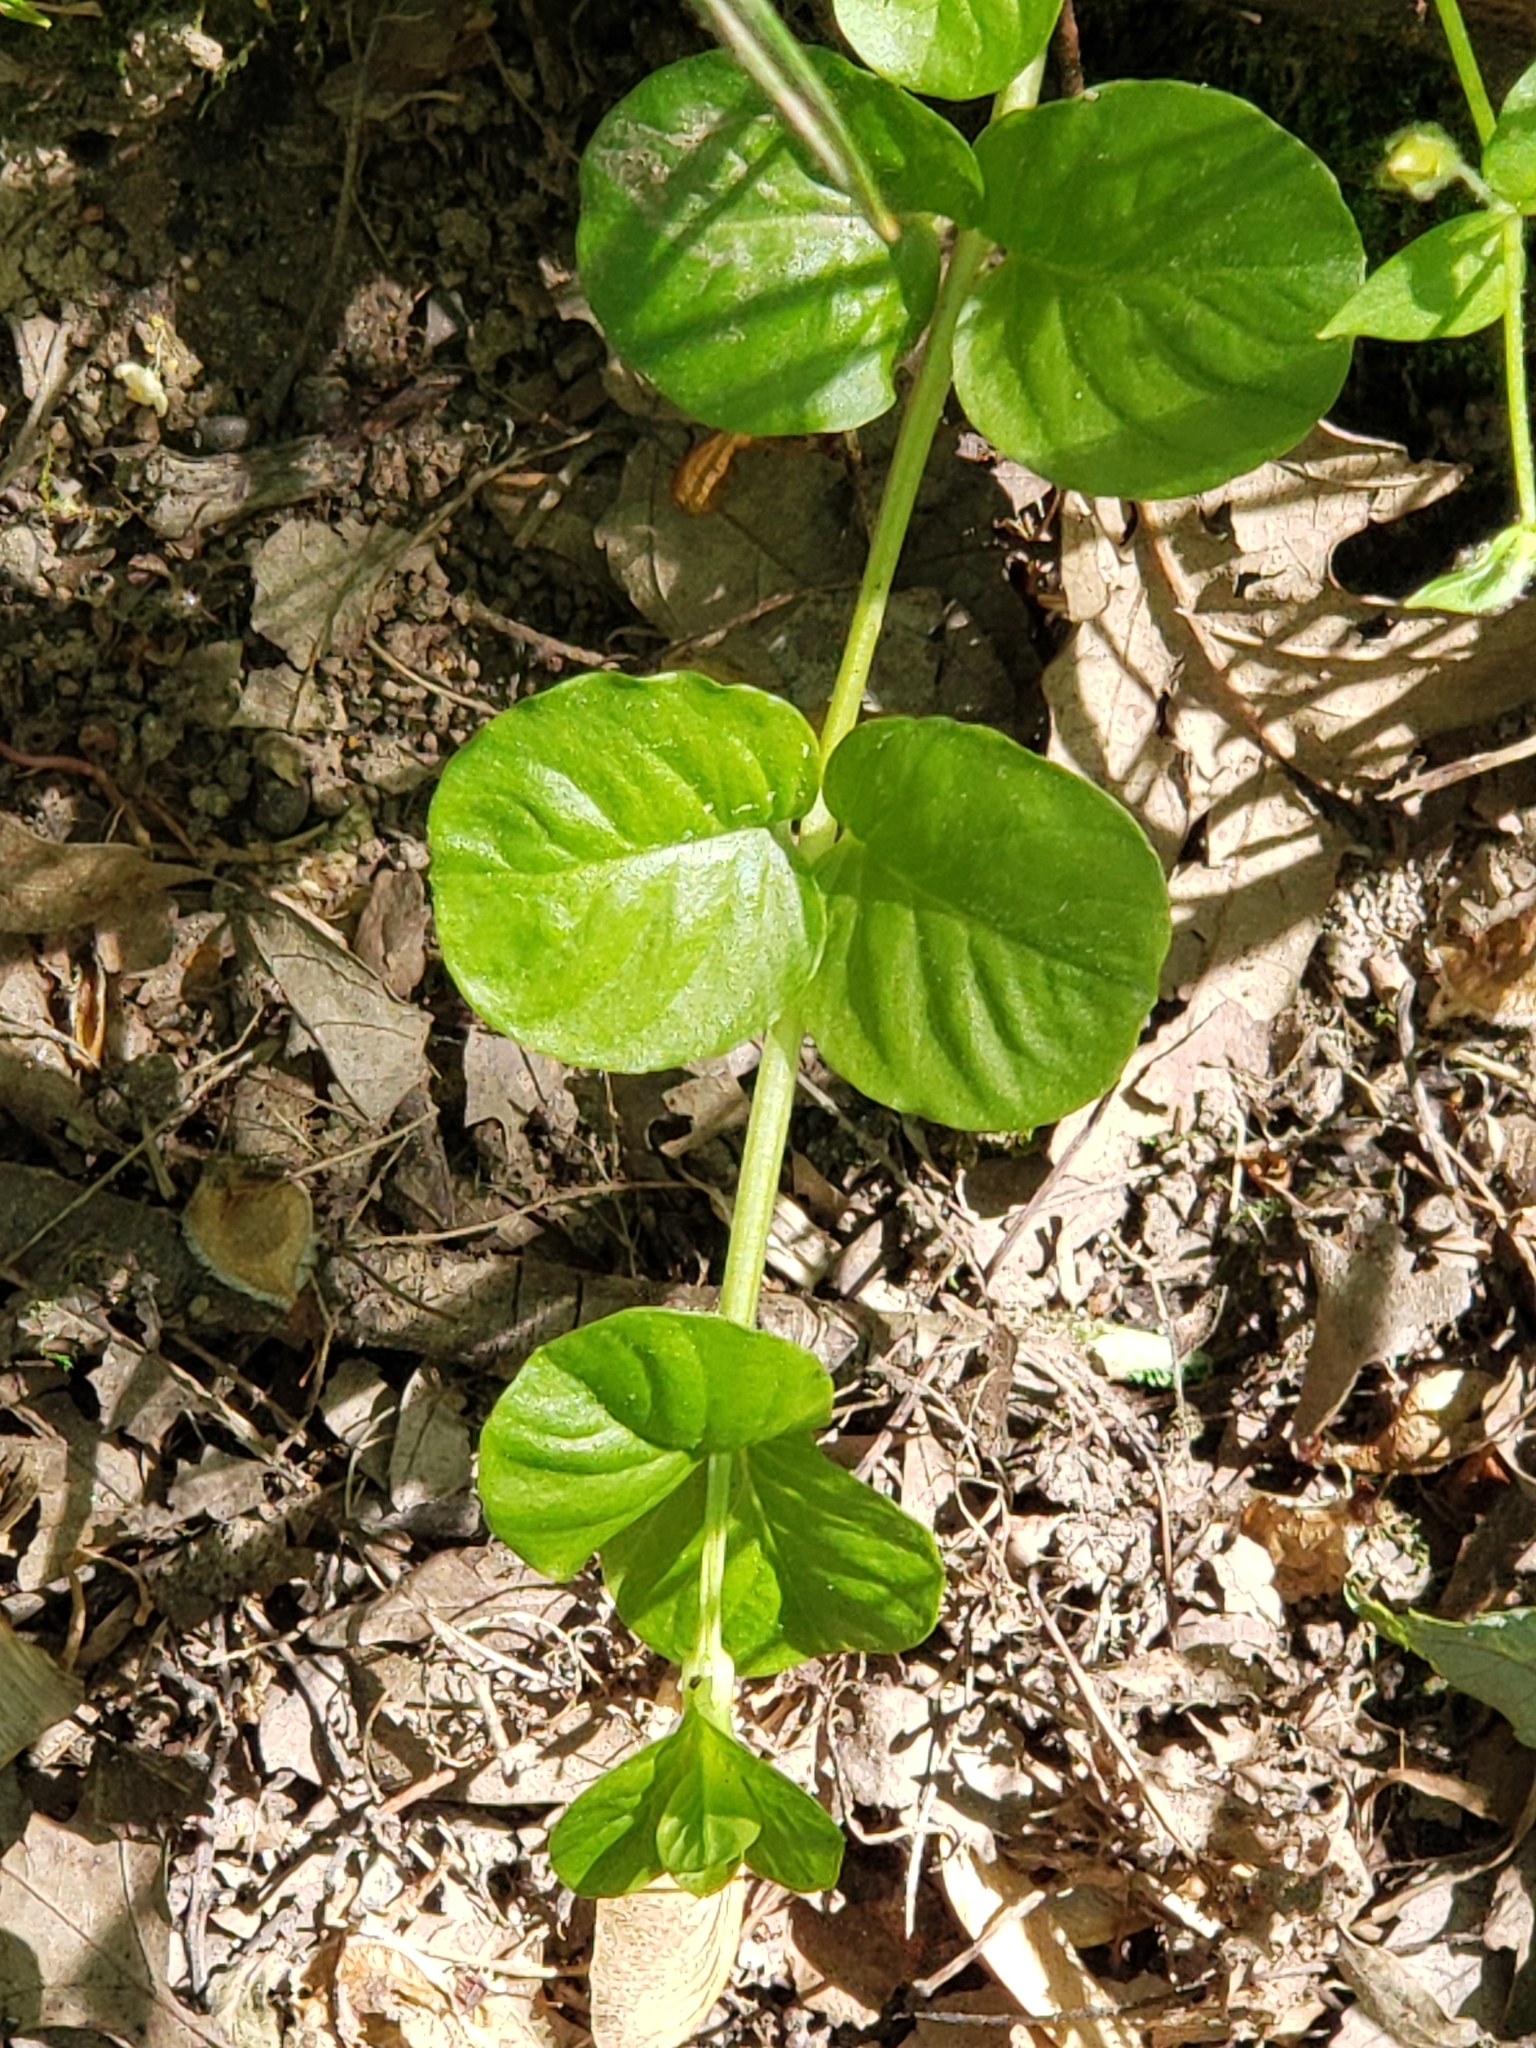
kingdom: Plantae
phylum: Tracheophyta
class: Magnoliopsida
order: Ericales
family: Primulaceae
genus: Lysimachia
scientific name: Lysimachia nummularia
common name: Moneywort
